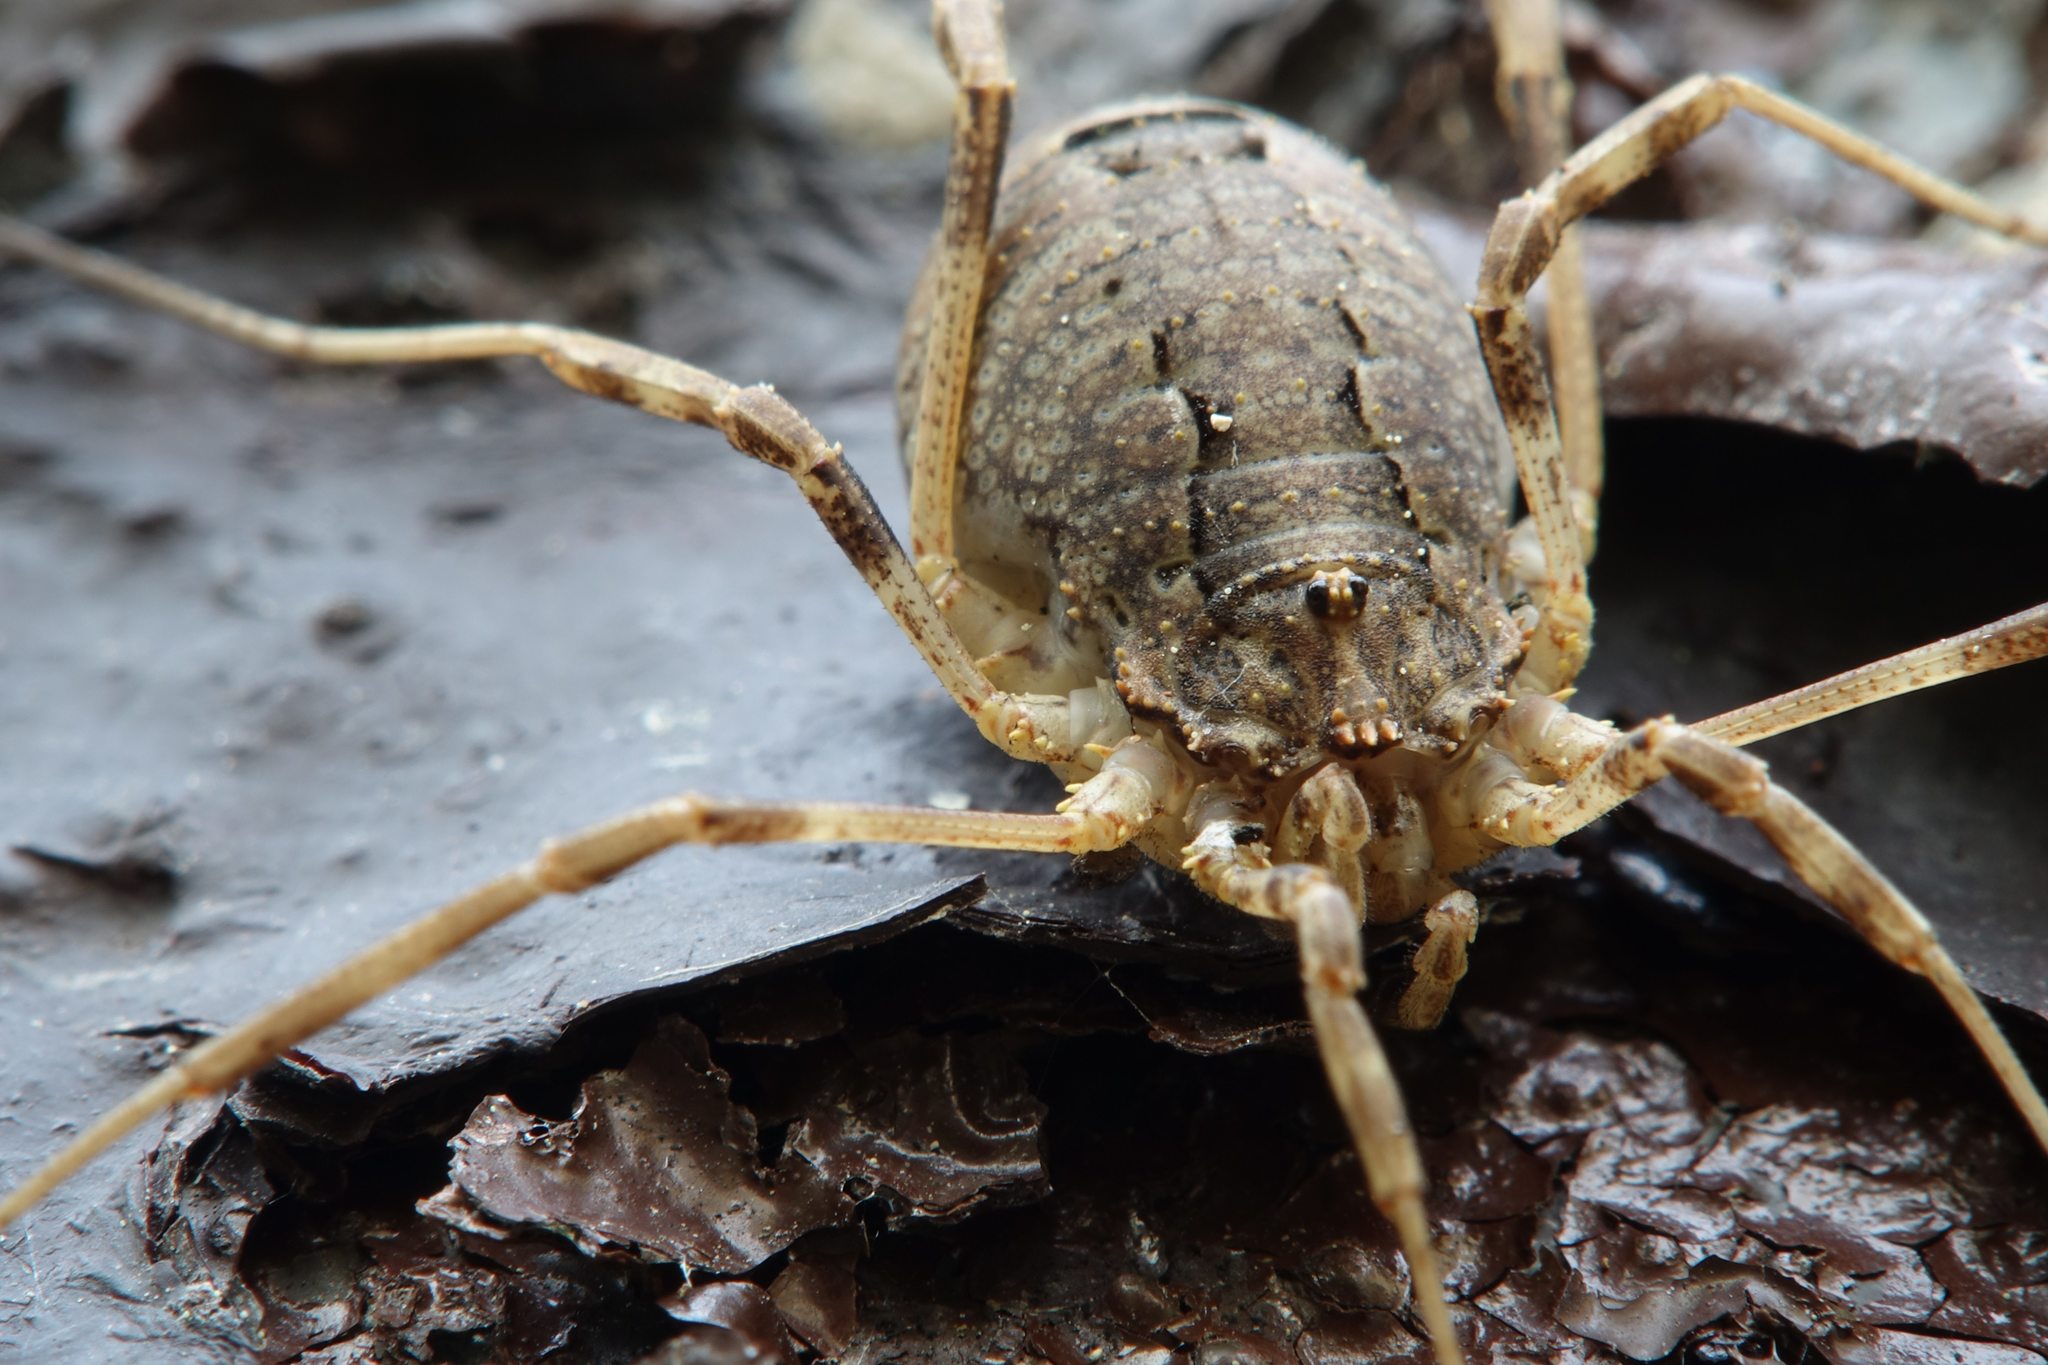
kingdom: Animalia
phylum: Arthropoda
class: Arachnida
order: Opiliones
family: Phalangiidae
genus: Odiellus
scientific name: Odiellus spinosus
